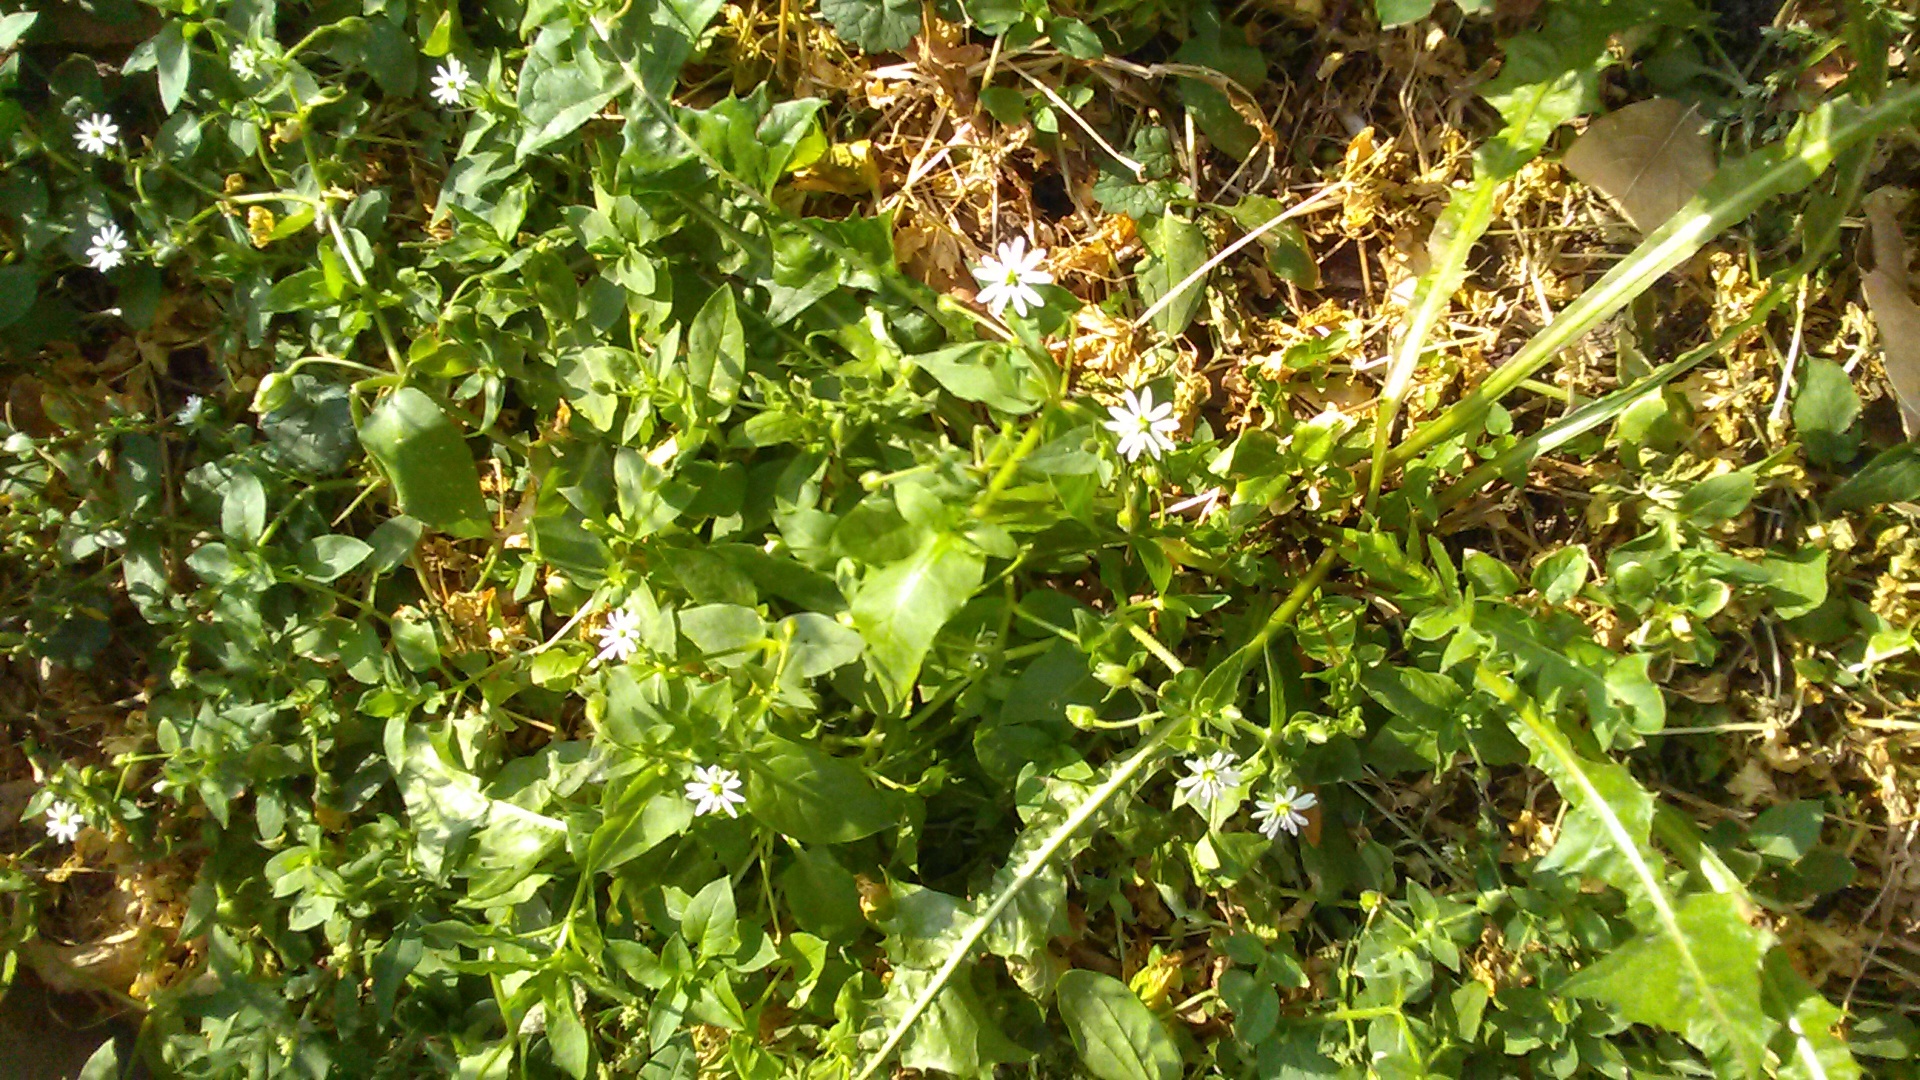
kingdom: Plantae
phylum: Tracheophyta
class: Magnoliopsida
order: Caryophyllales
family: Caryophyllaceae
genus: Stellaria
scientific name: Stellaria aquatica
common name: Water chickweed
